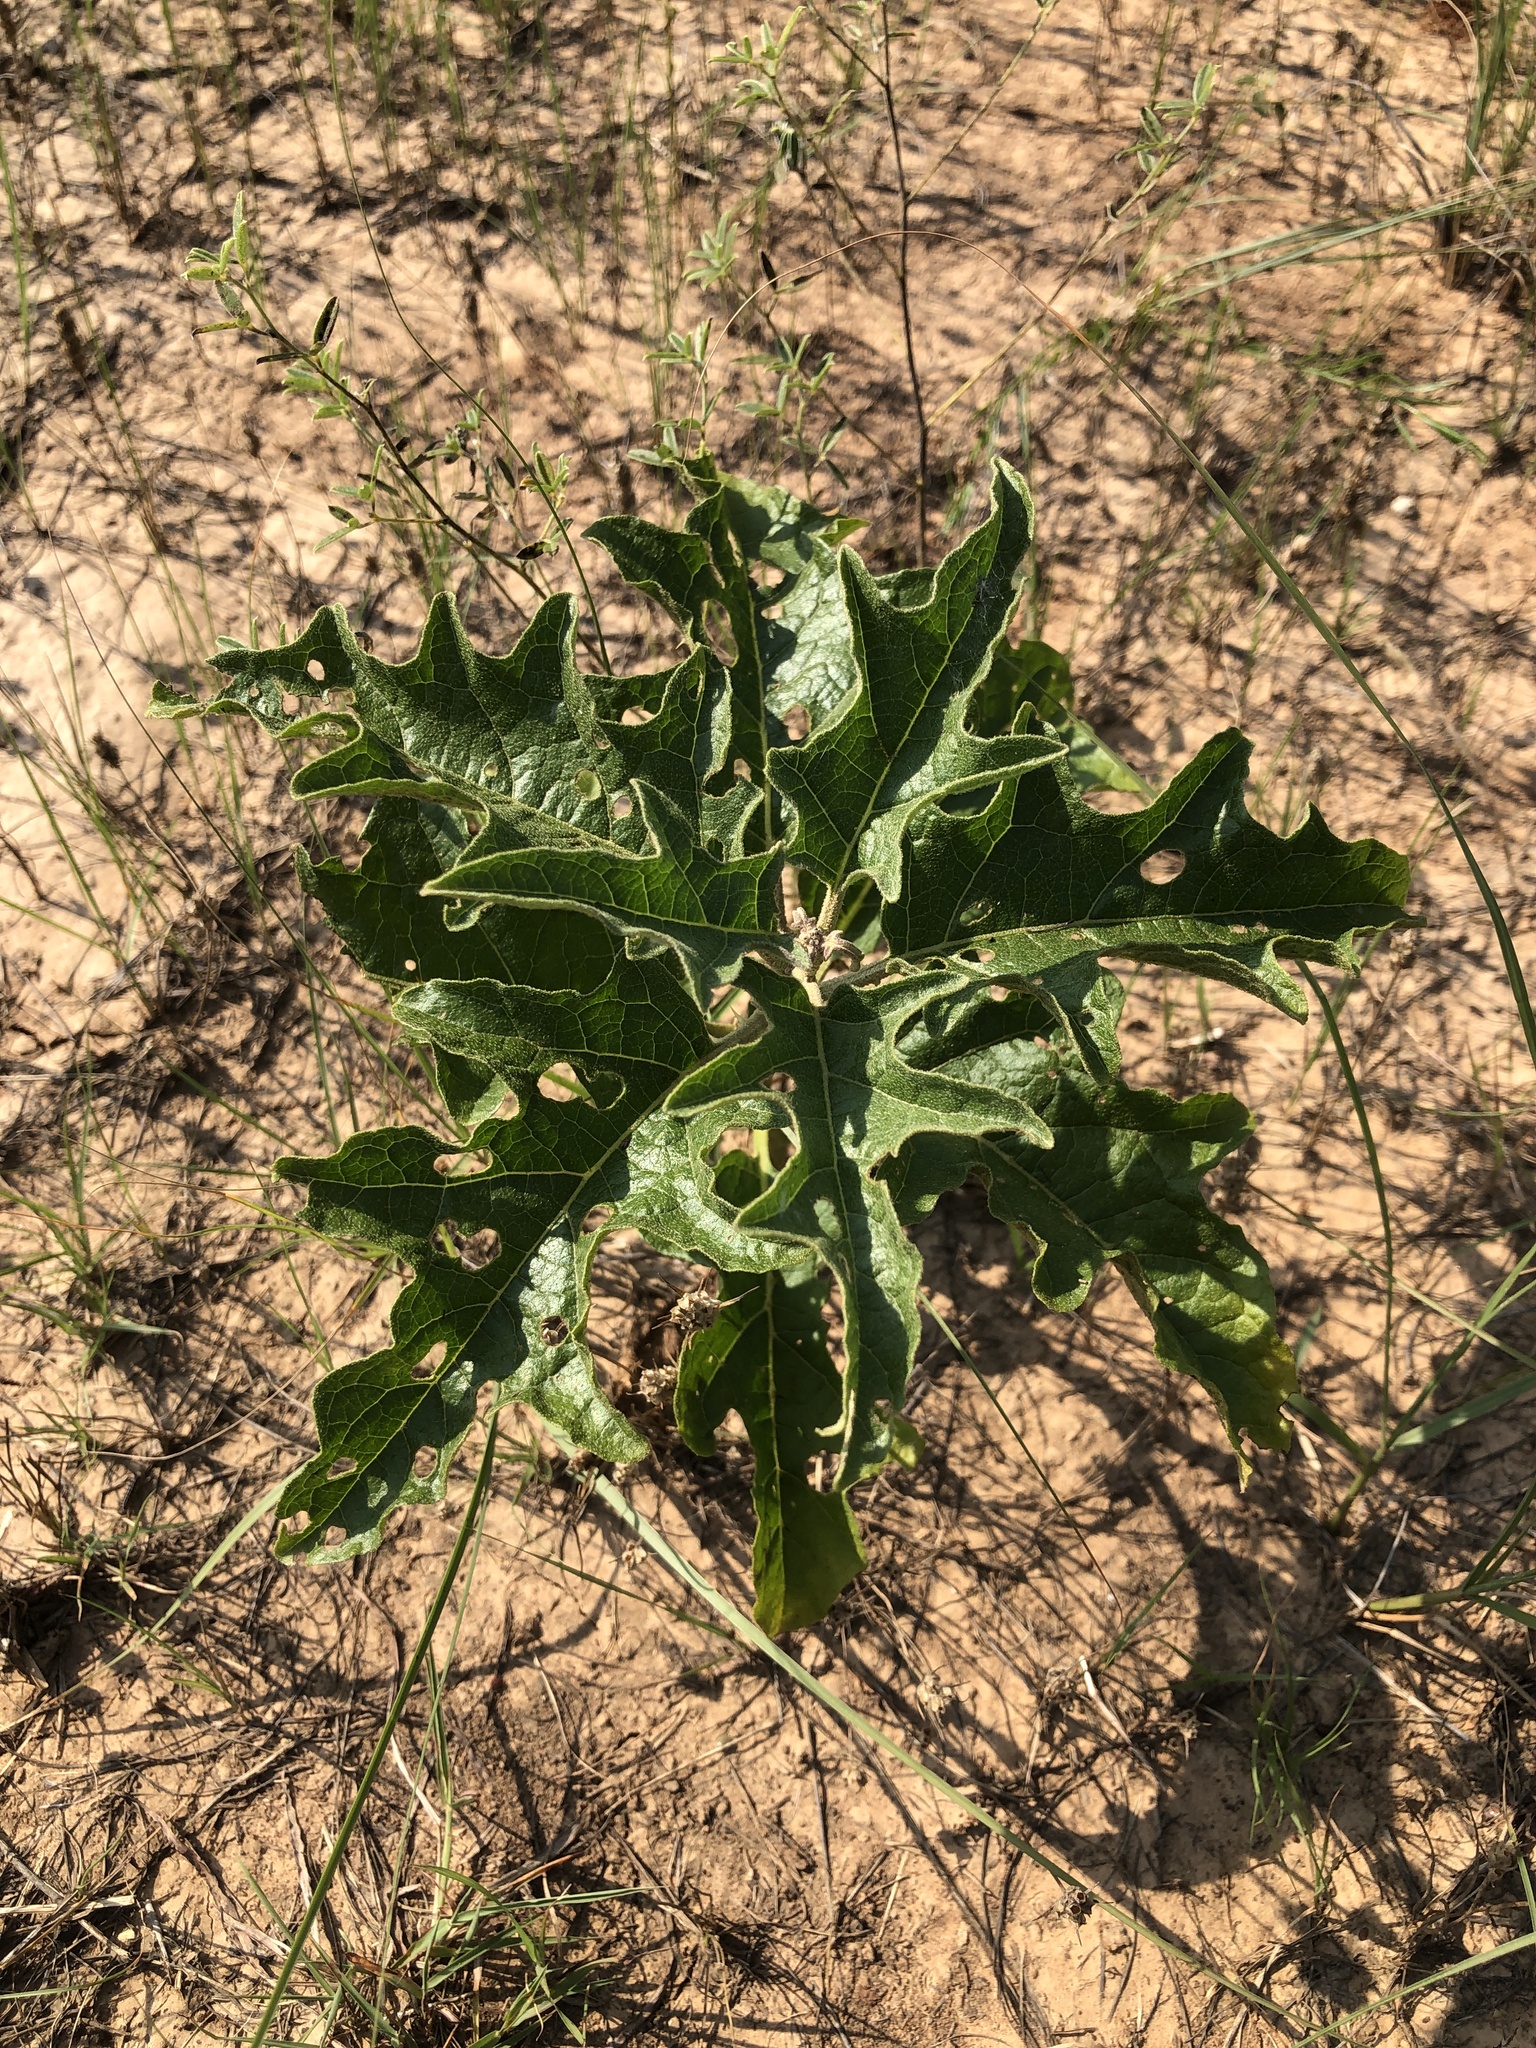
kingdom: Plantae
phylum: Tracheophyta
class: Magnoliopsida
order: Solanales
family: Solanaceae
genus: Solanum
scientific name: Solanum dimidiatum
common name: Carolina horse-nettle
